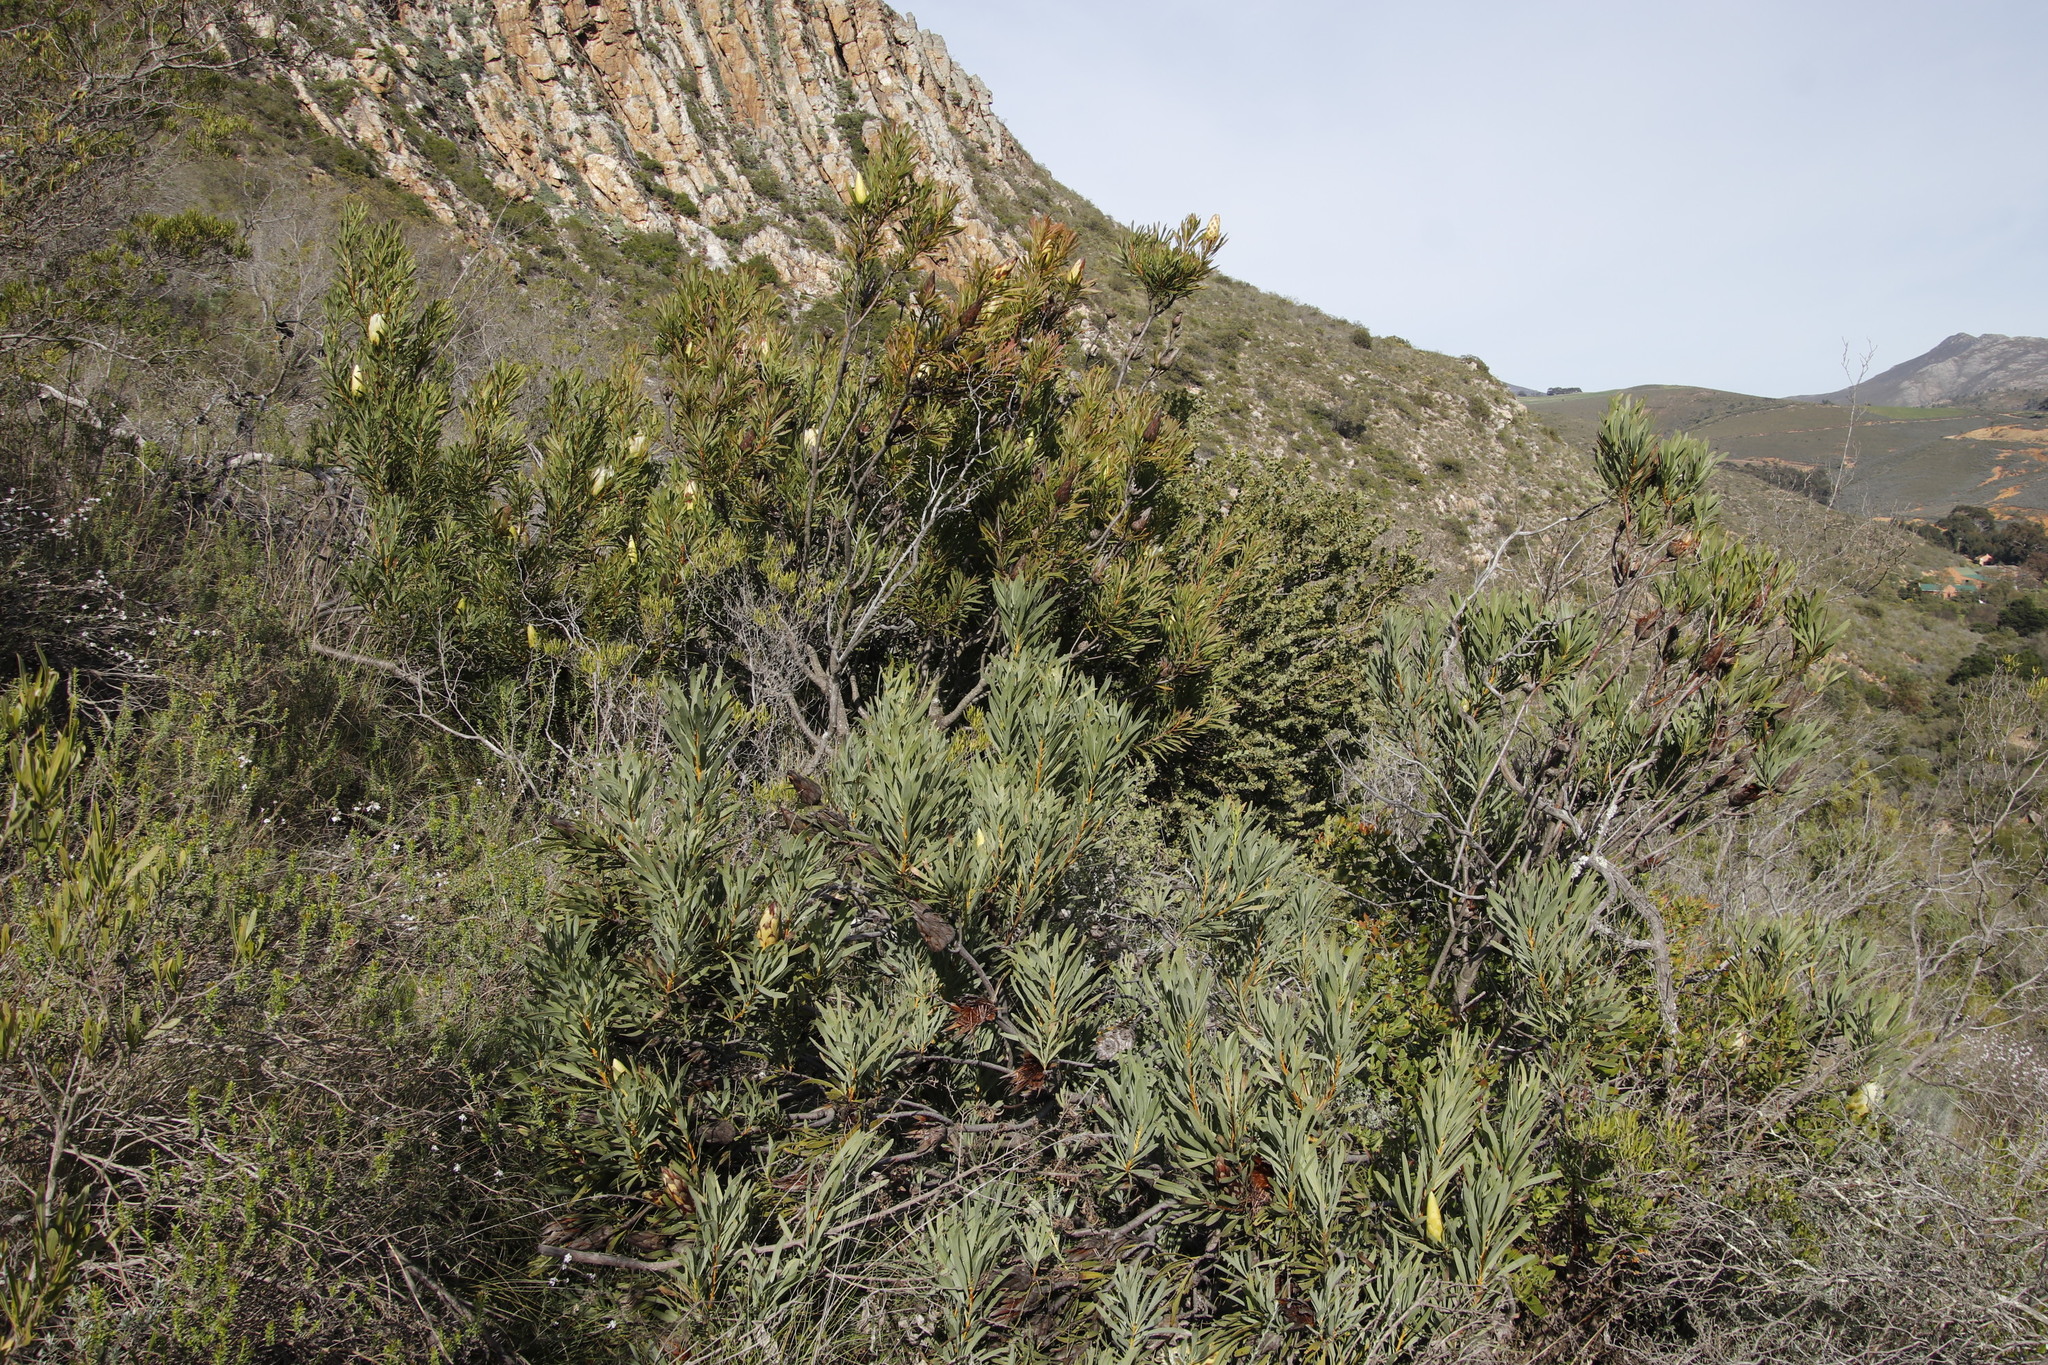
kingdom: Plantae
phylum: Tracheophyta
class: Magnoliopsida
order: Proteales
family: Proteaceae
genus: Protea
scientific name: Protea repens
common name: Sugarbush
